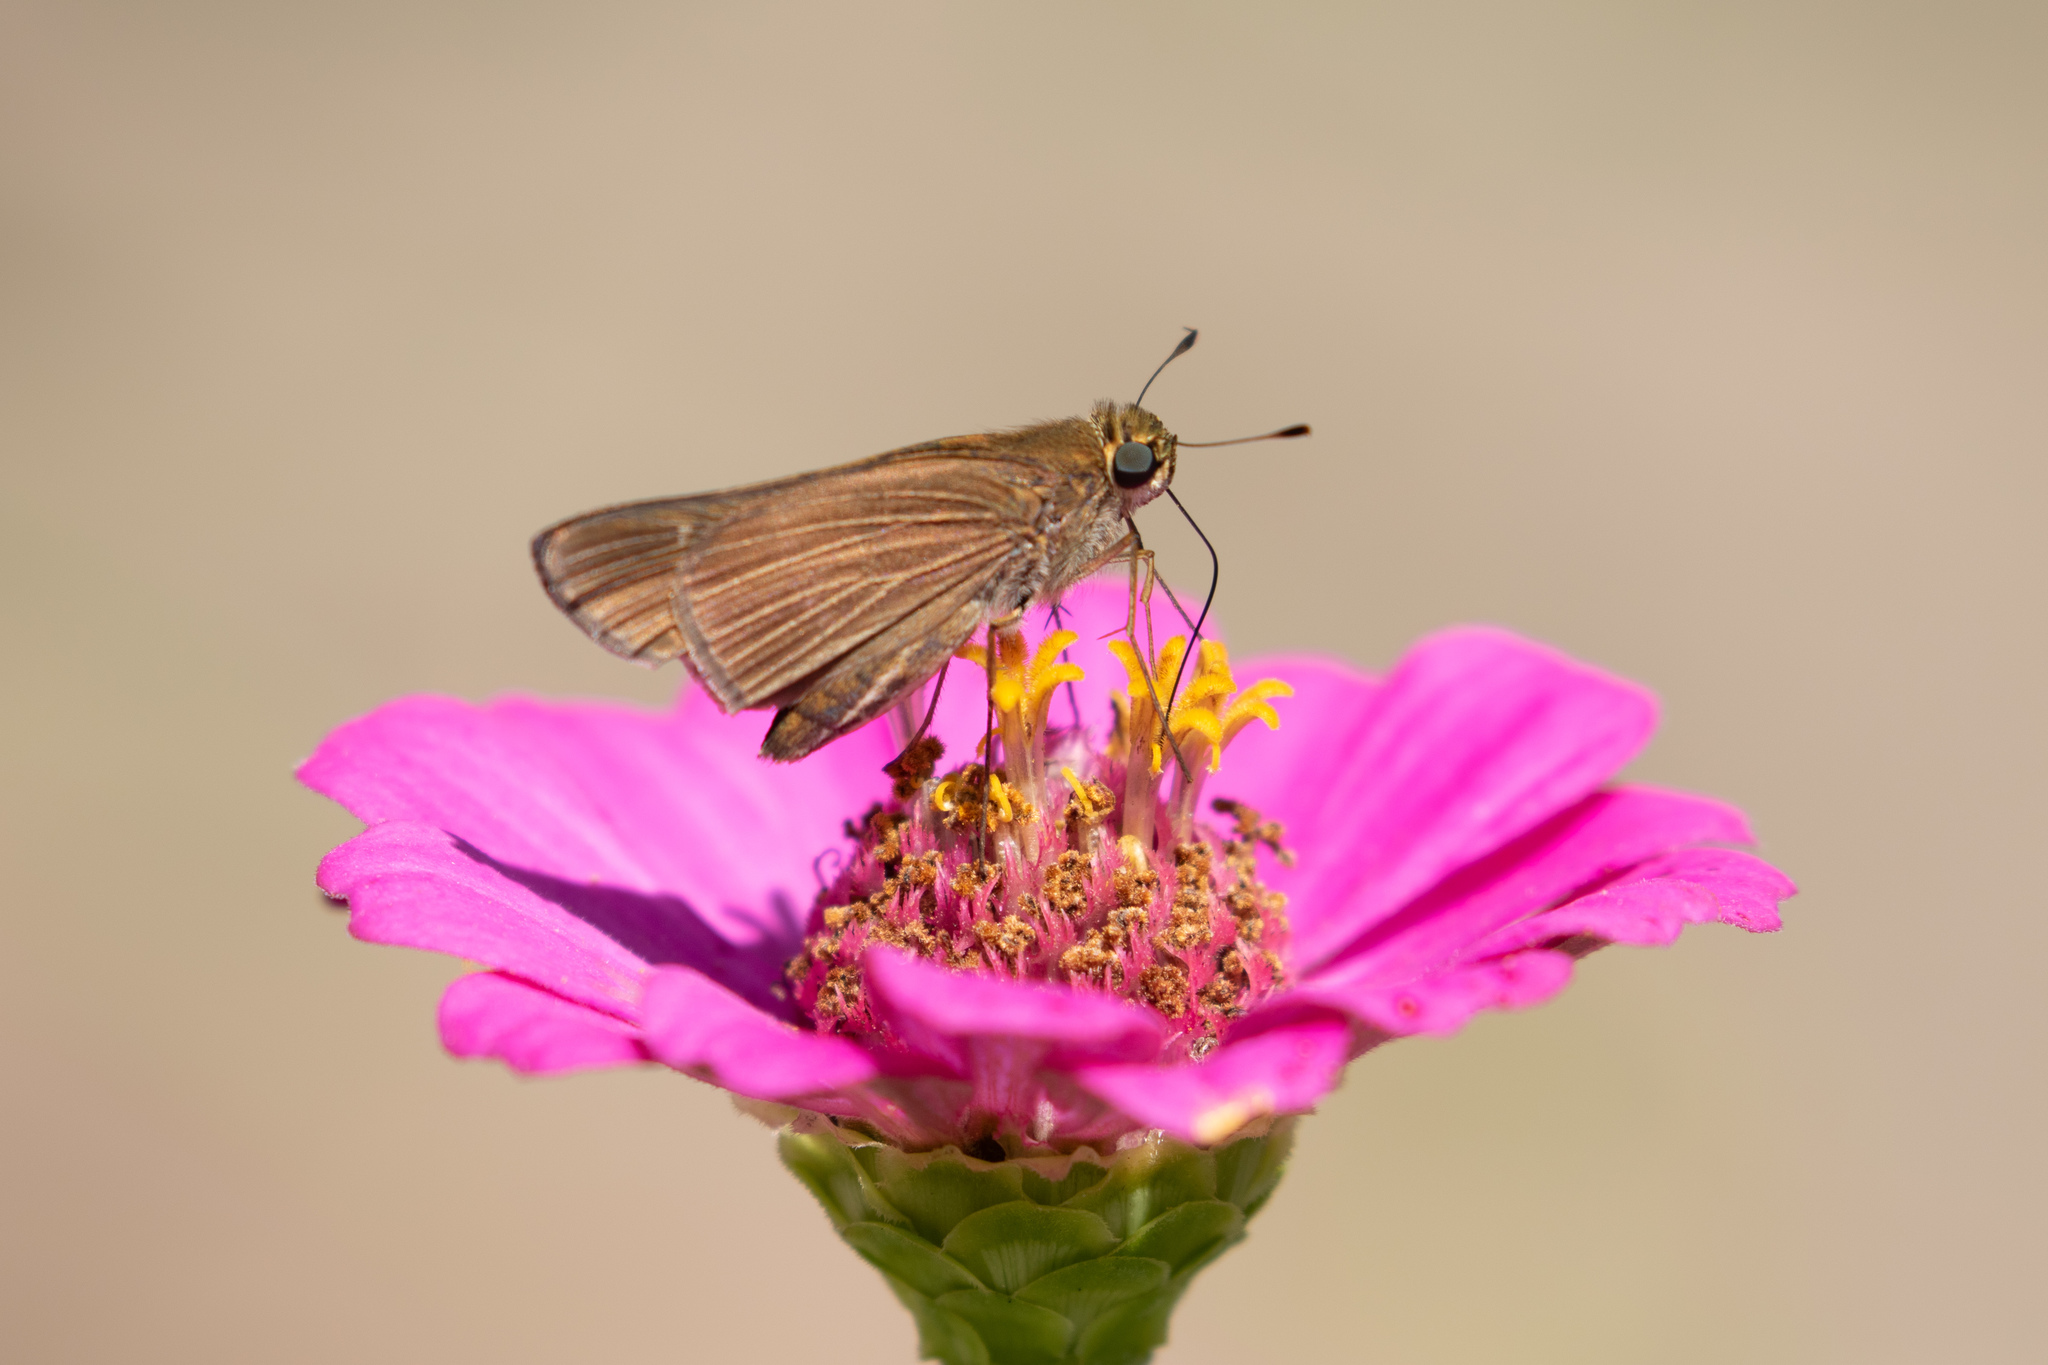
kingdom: Animalia
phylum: Arthropoda
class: Insecta
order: Lepidoptera
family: Hesperiidae
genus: Panoquina
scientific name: Panoquina ocola
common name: Ocola skipper
